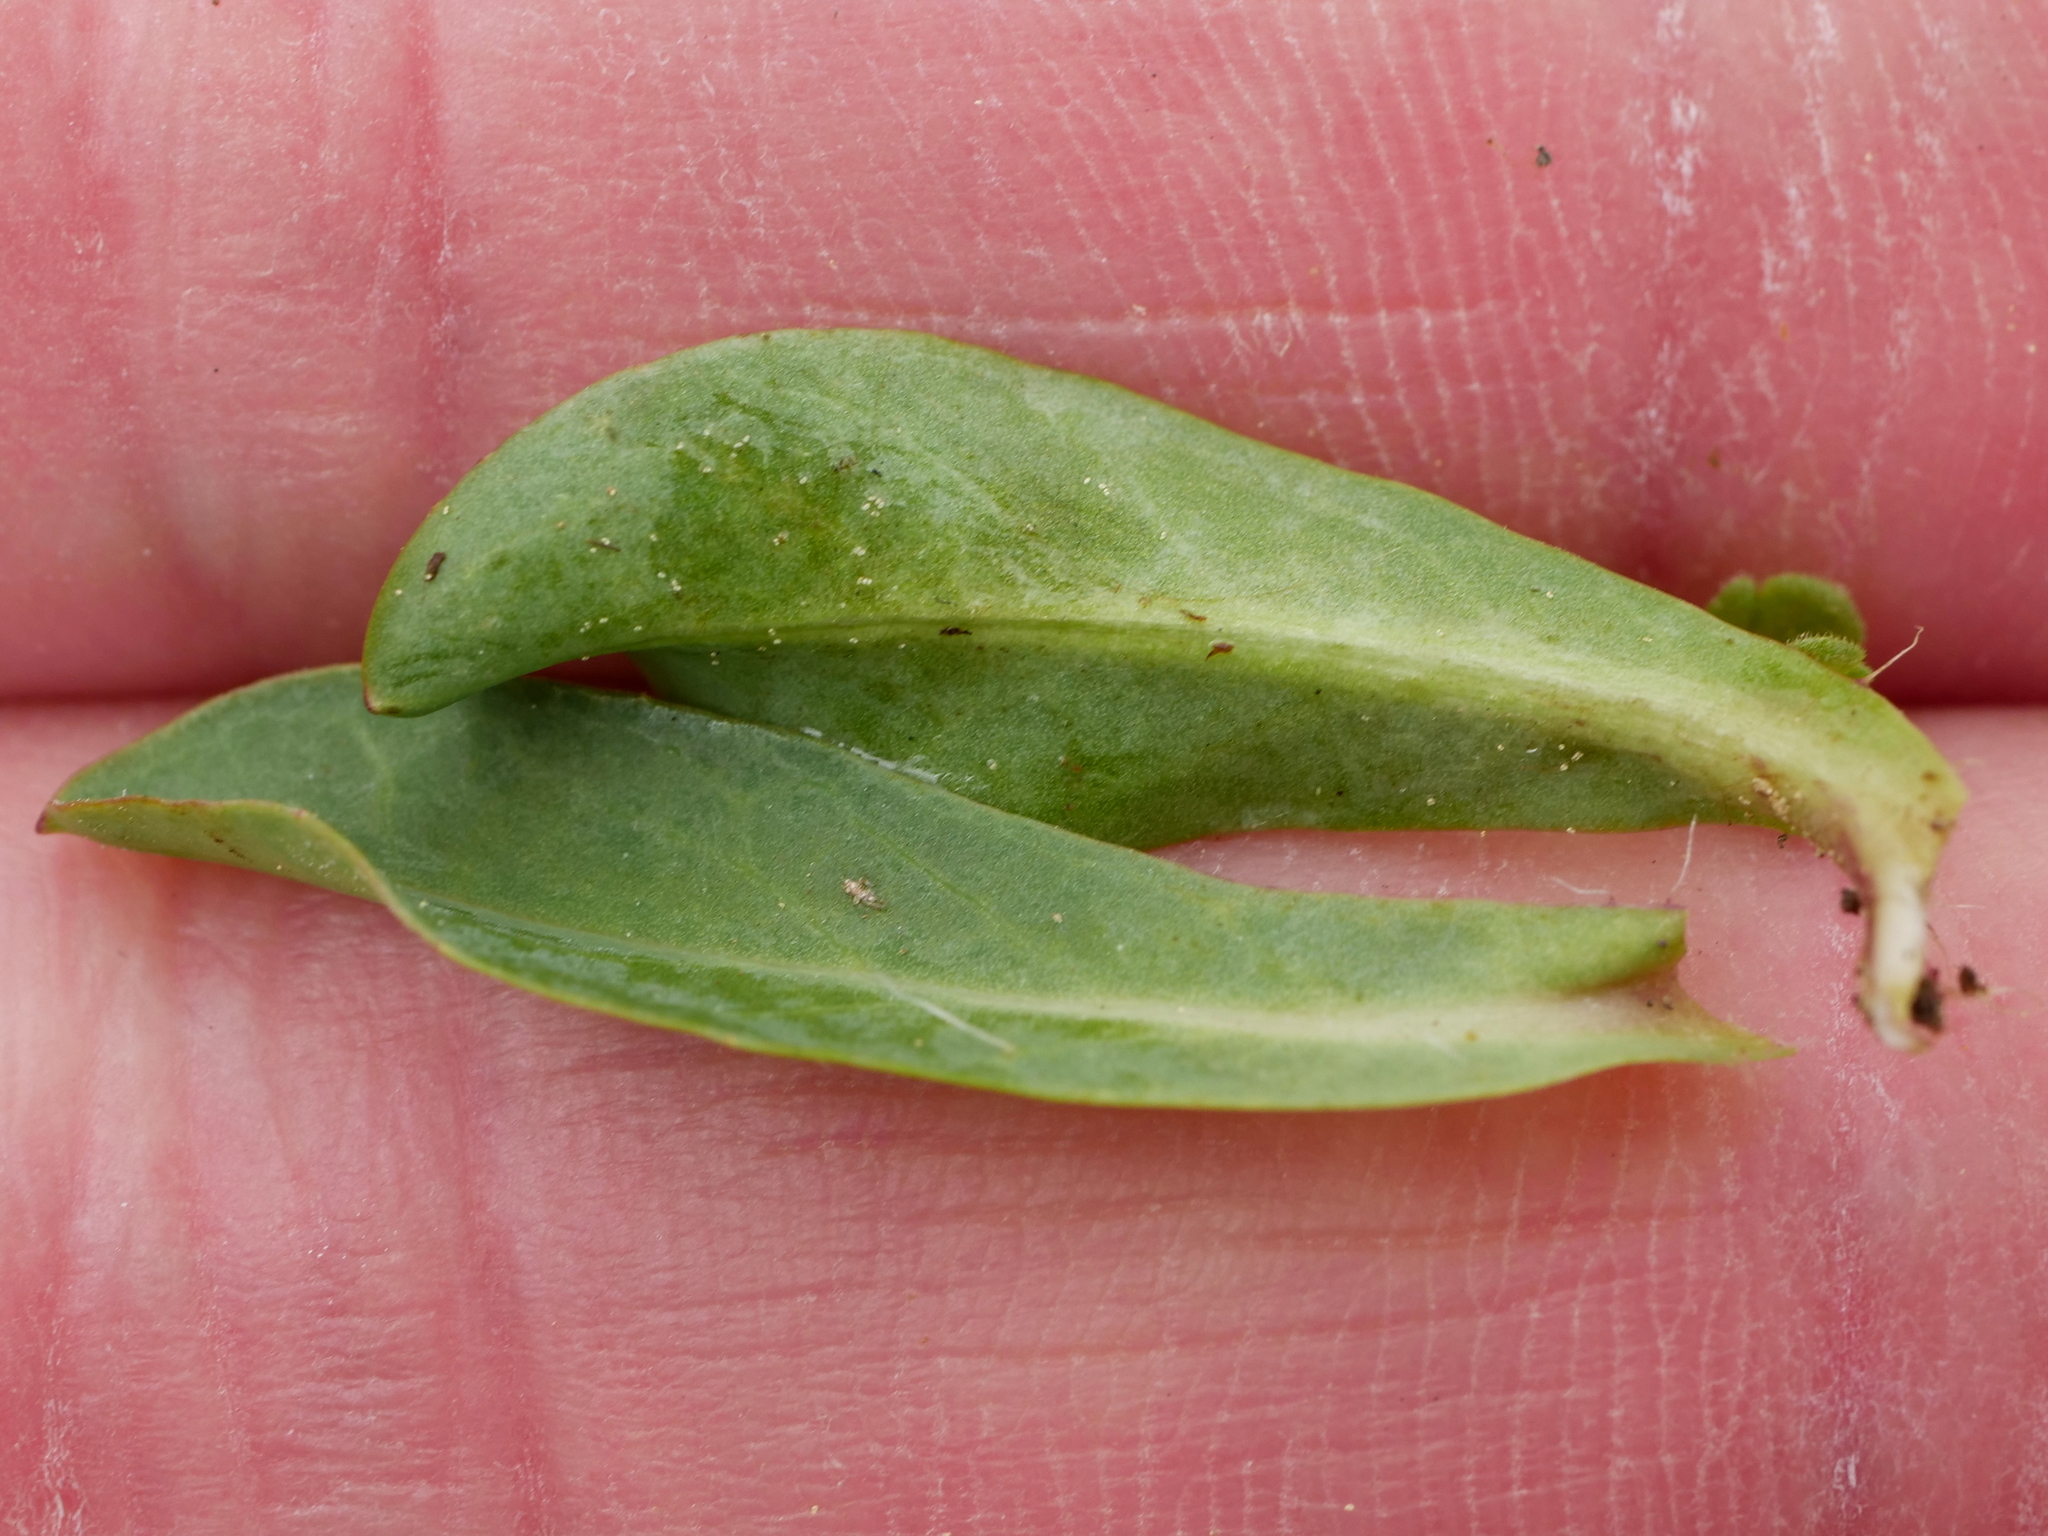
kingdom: Plantae
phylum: Tracheophyta
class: Magnoliopsida
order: Asterales
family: Asteraceae
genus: Pilosella
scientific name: Pilosella lactucella
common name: Glaucous fox-and-cubs
